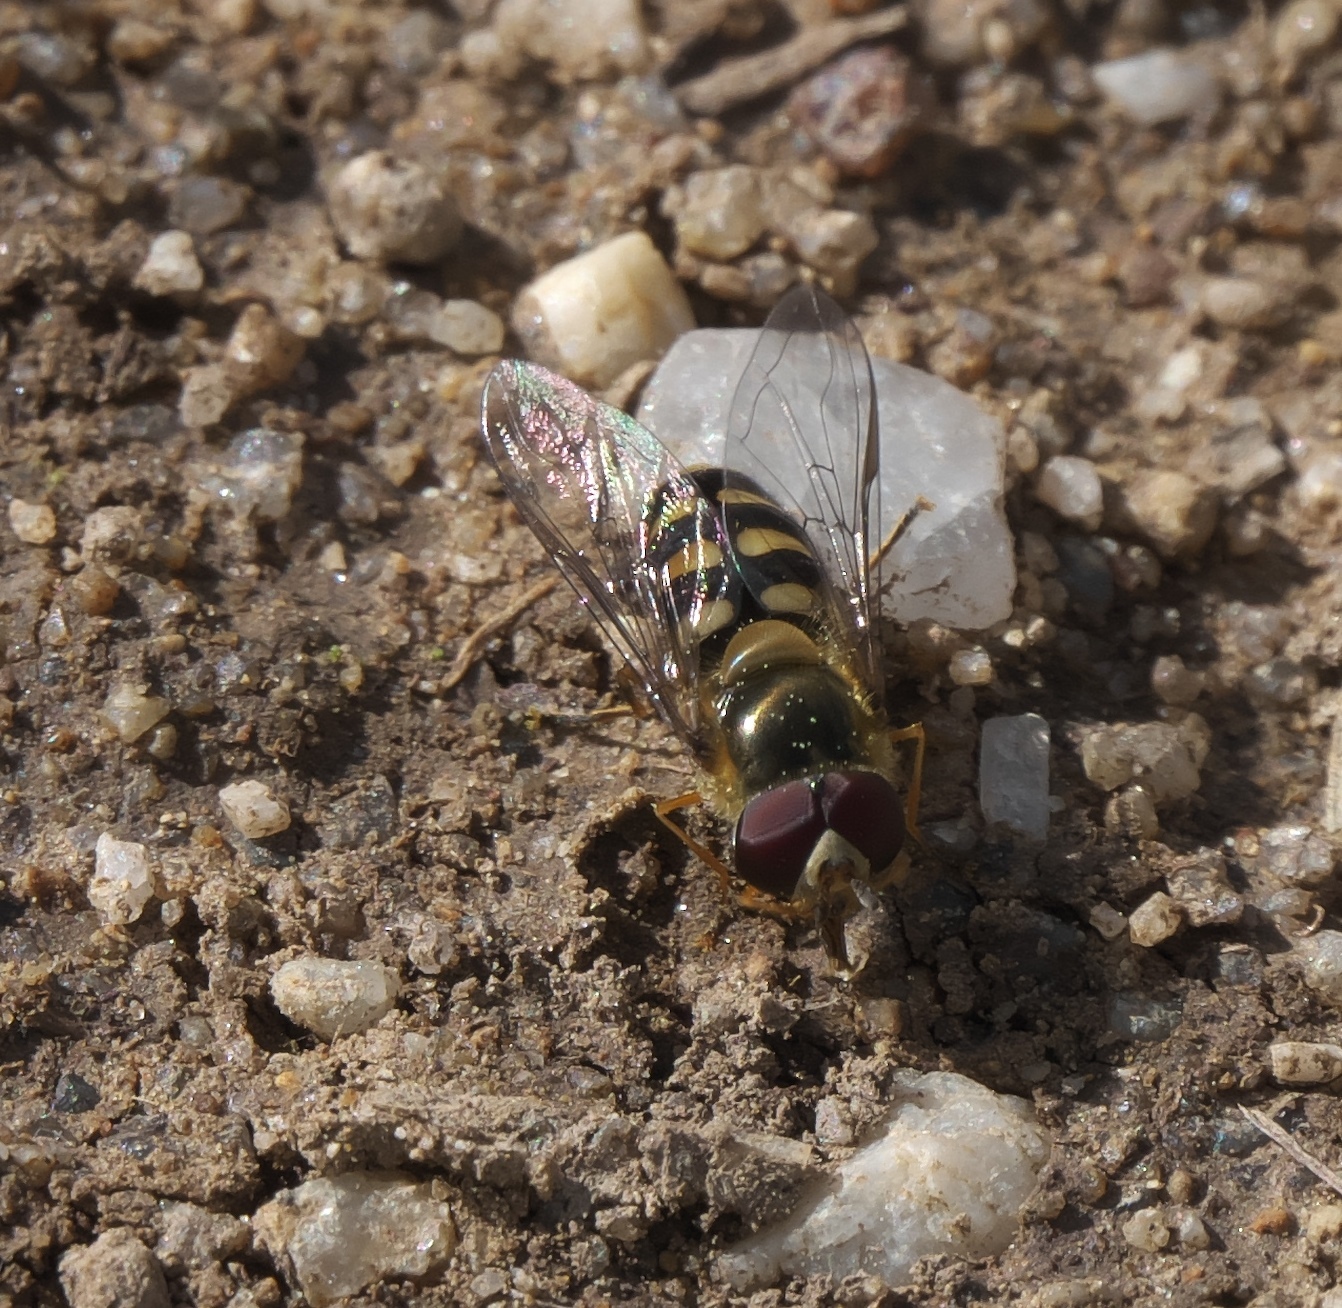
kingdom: Animalia
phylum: Arthropoda
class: Insecta
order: Diptera
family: Syrphidae
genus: Lapposyrphus
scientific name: Lapposyrphus lapponicus
